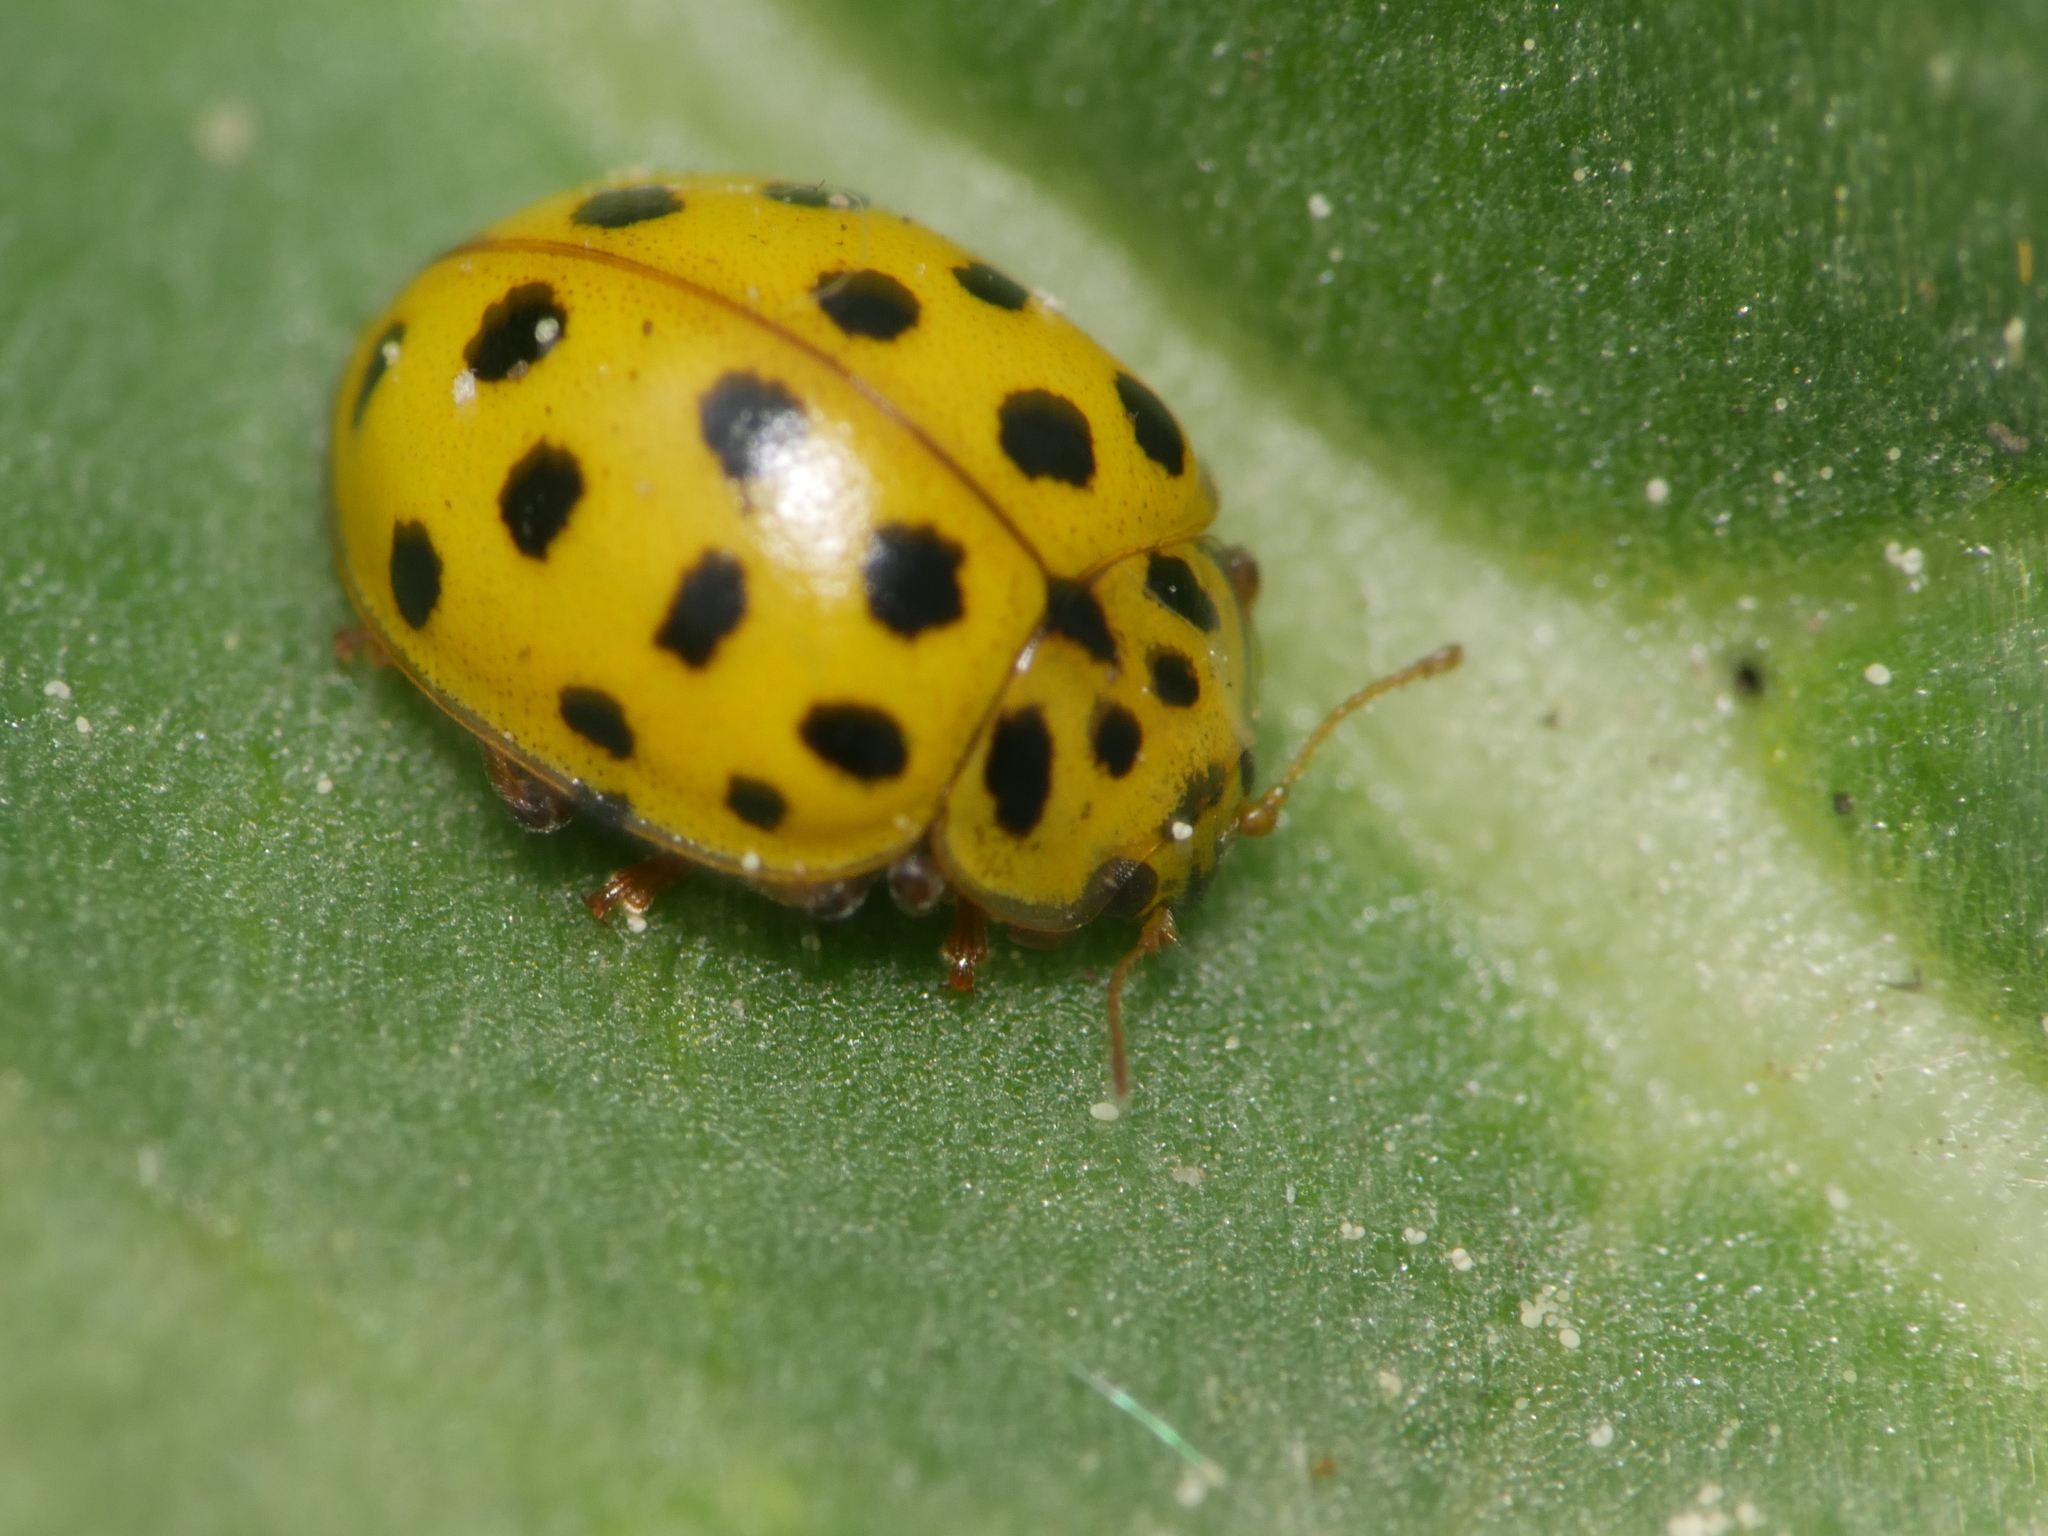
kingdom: Animalia
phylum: Arthropoda
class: Insecta
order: Coleoptera
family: Coccinellidae
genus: Psyllobora
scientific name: Psyllobora vigintiduopunctata
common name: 22-spot ladybird
